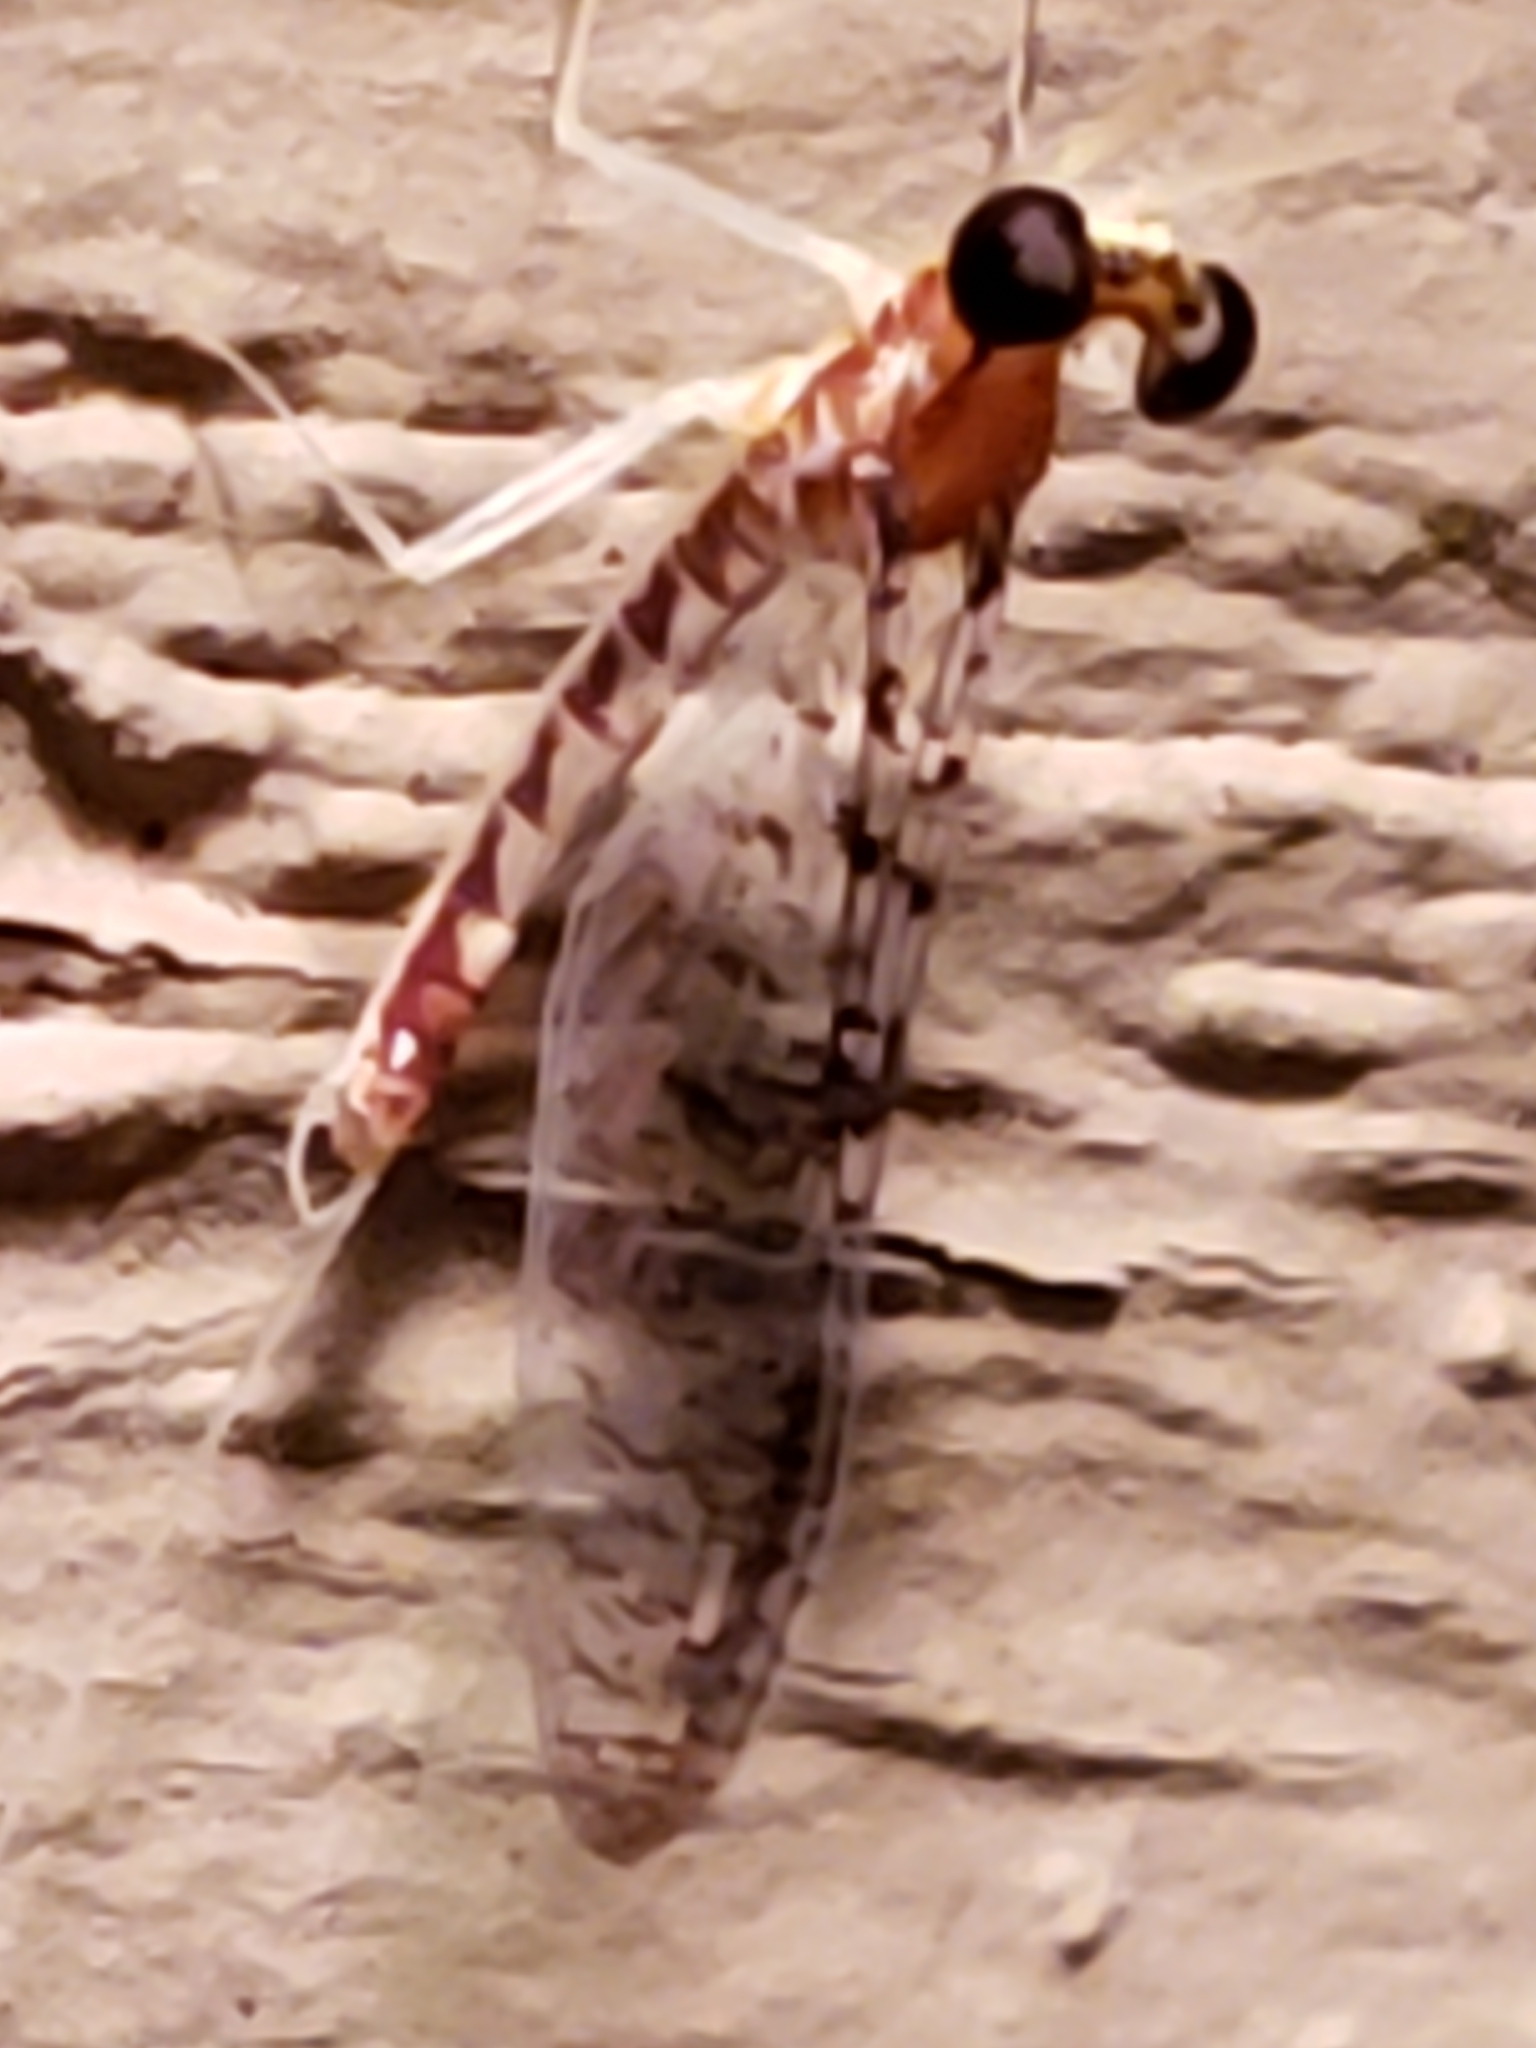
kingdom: Animalia
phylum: Arthropoda
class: Insecta
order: Ephemeroptera
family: Heptageniidae
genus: Leucrocuta
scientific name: Leucrocuta umbratica
